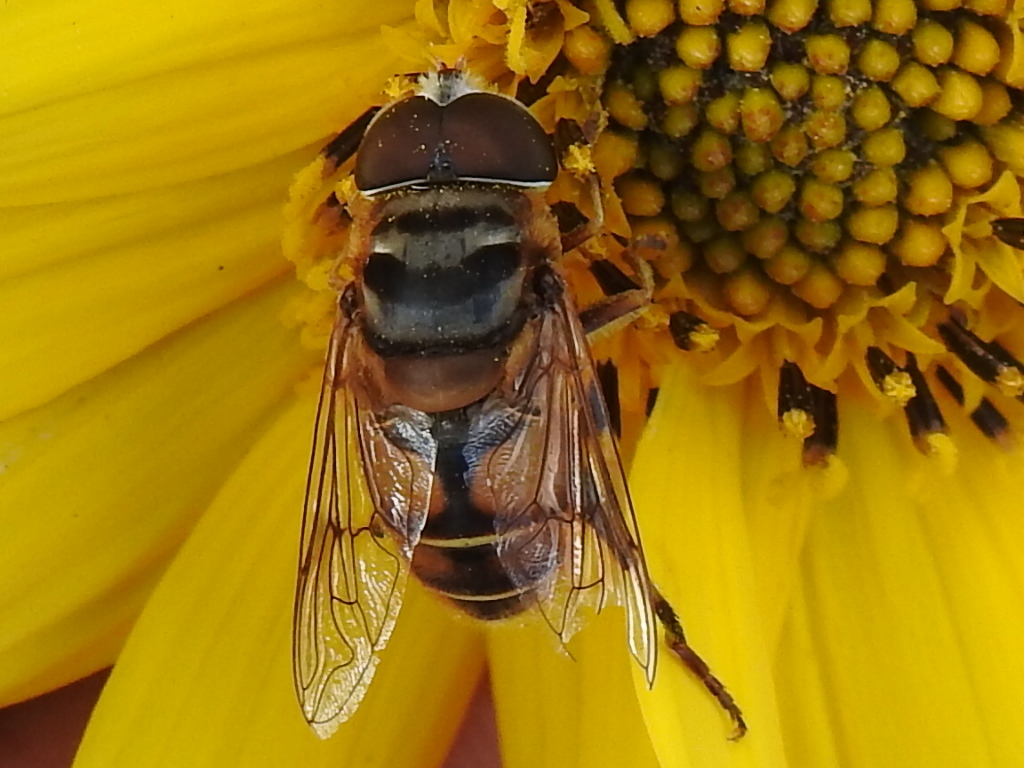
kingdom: Animalia
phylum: Arthropoda
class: Insecta
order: Diptera
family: Syrphidae
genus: Palpada
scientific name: Palpada vinetorum
